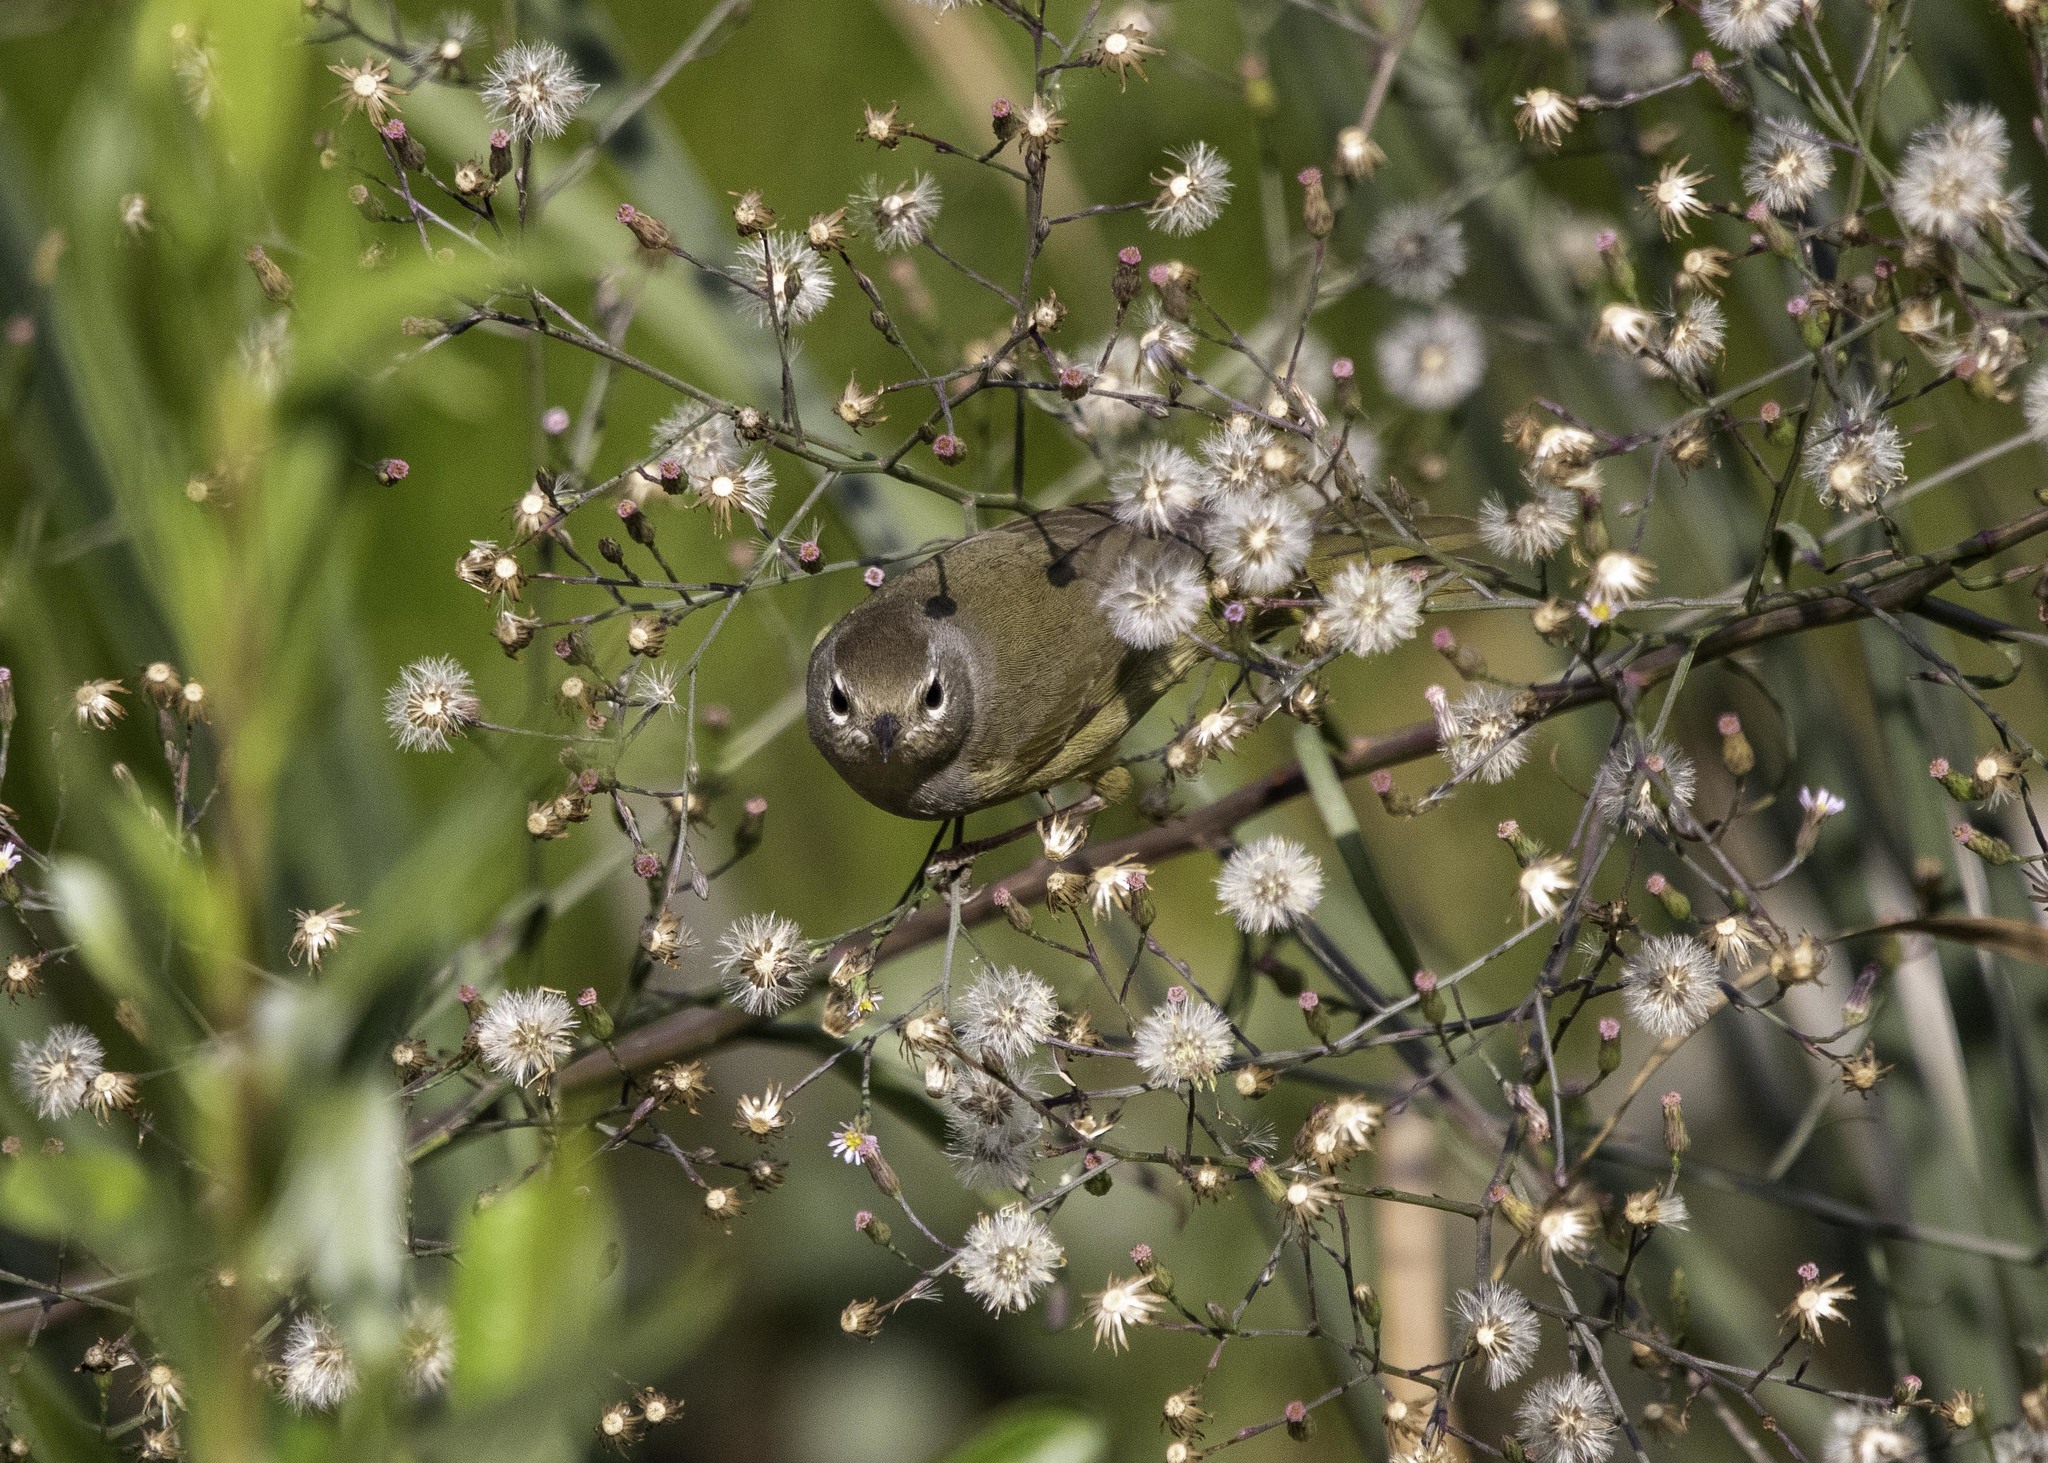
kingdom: Animalia
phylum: Chordata
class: Aves
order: Passeriformes
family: Parulidae
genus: Geothlypis
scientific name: Geothlypis tolmiei
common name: Macgillivray's warbler
